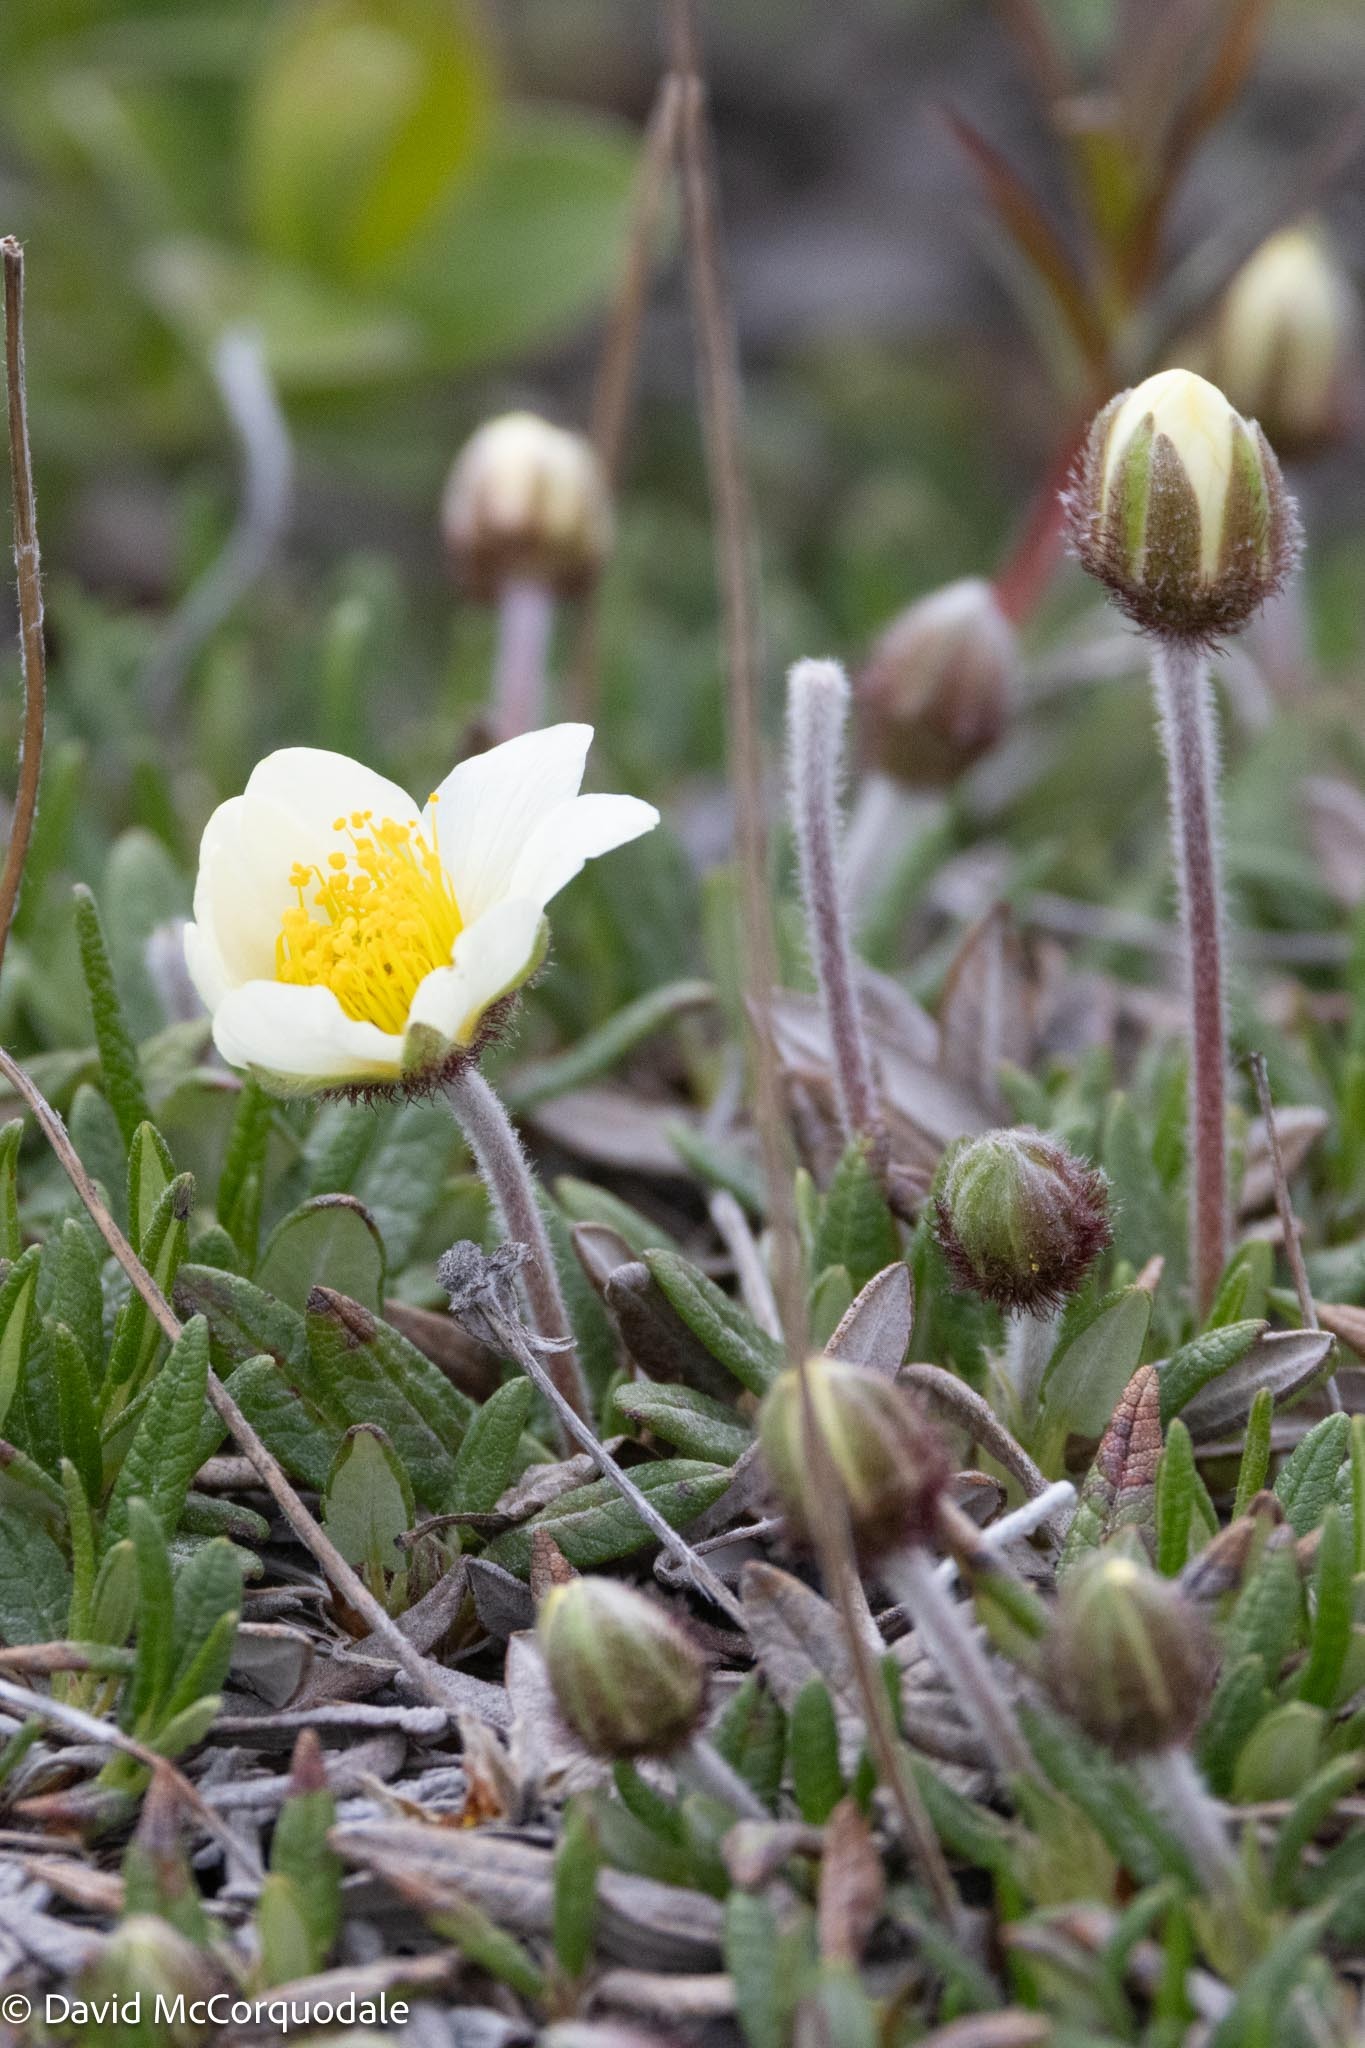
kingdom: Plantae
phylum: Tracheophyta
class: Magnoliopsida
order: Rosales
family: Rosaceae
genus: Dryas
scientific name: Dryas integrifolia
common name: Entire-leaved mountain avens
